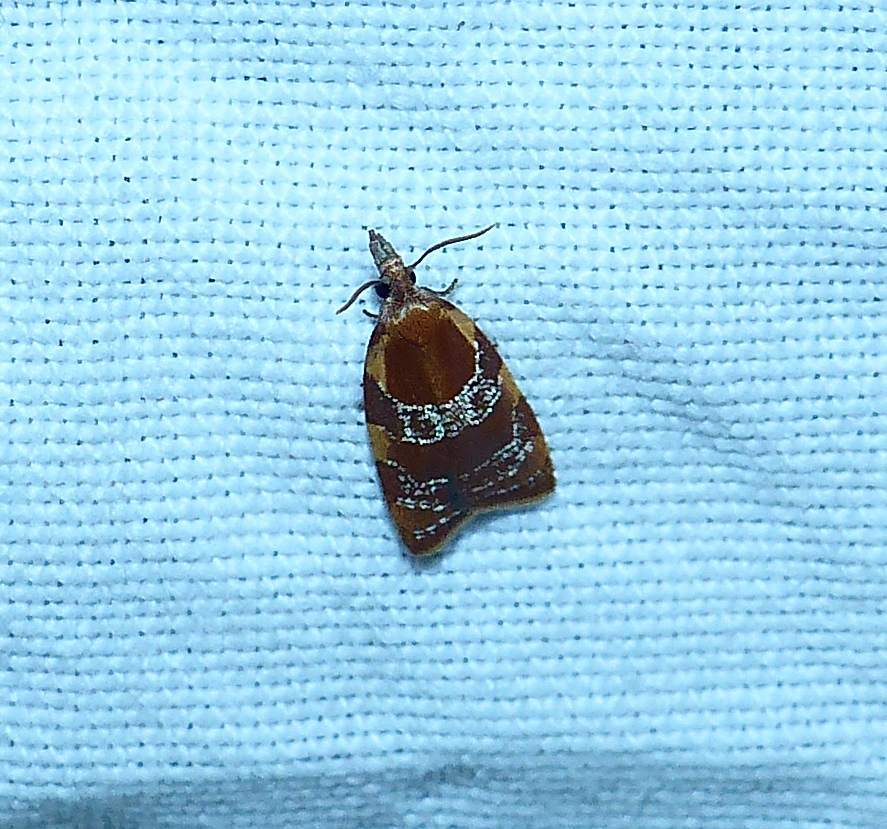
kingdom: Animalia
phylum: Arthropoda
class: Insecta
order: Lepidoptera
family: Tortricidae
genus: Cenopis
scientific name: Cenopis diluticostana
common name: Spring dead-leaf roller moth
